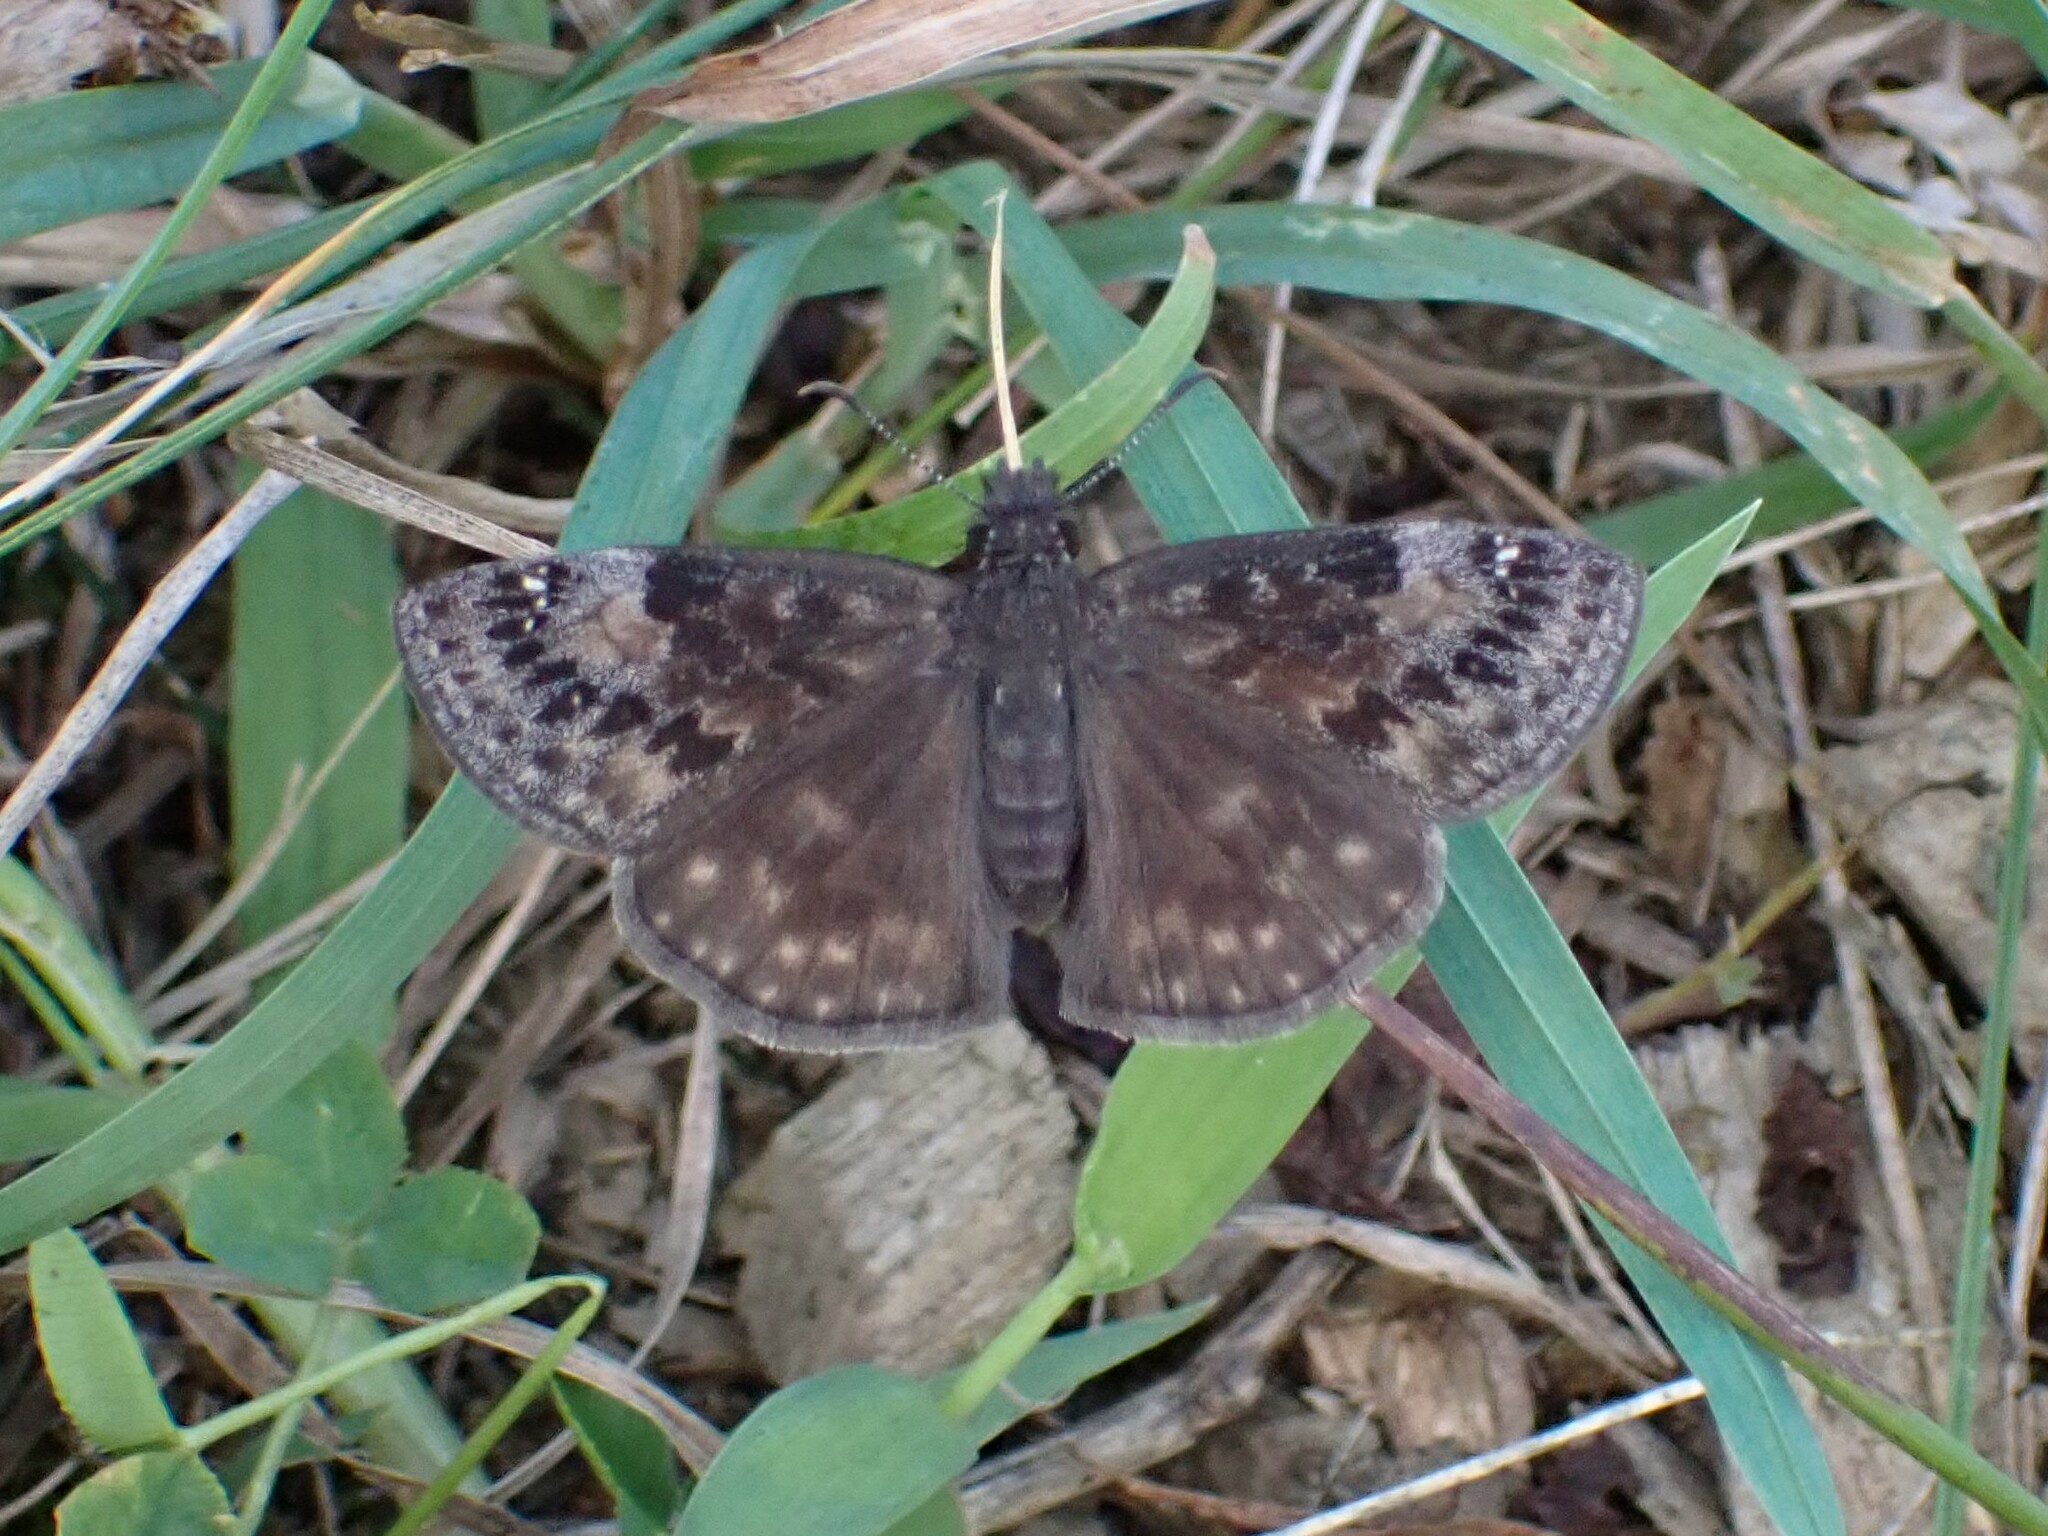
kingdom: Animalia
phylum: Arthropoda
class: Insecta
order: Lepidoptera
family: Hesperiidae
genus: Erynnis
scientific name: Erynnis baptisiae
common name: Wild indigo duskywing
